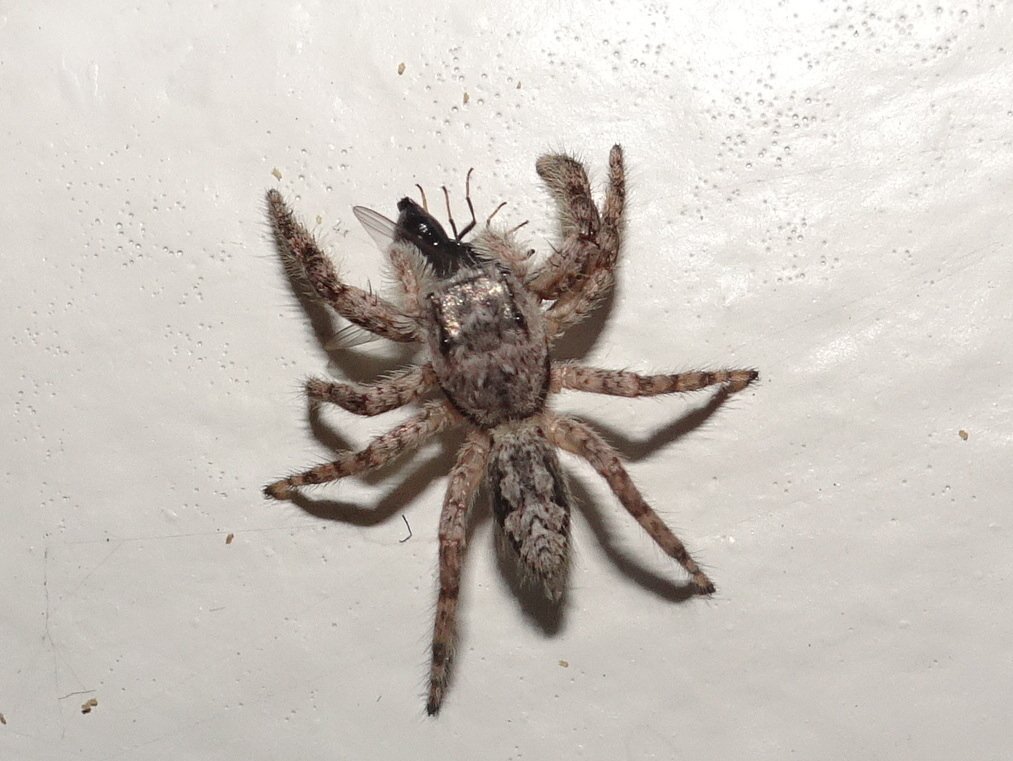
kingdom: Animalia
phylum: Arthropoda
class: Arachnida
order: Araneae
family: Salticidae
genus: Platycryptus
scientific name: Platycryptus undatus
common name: Tan jumping spider
